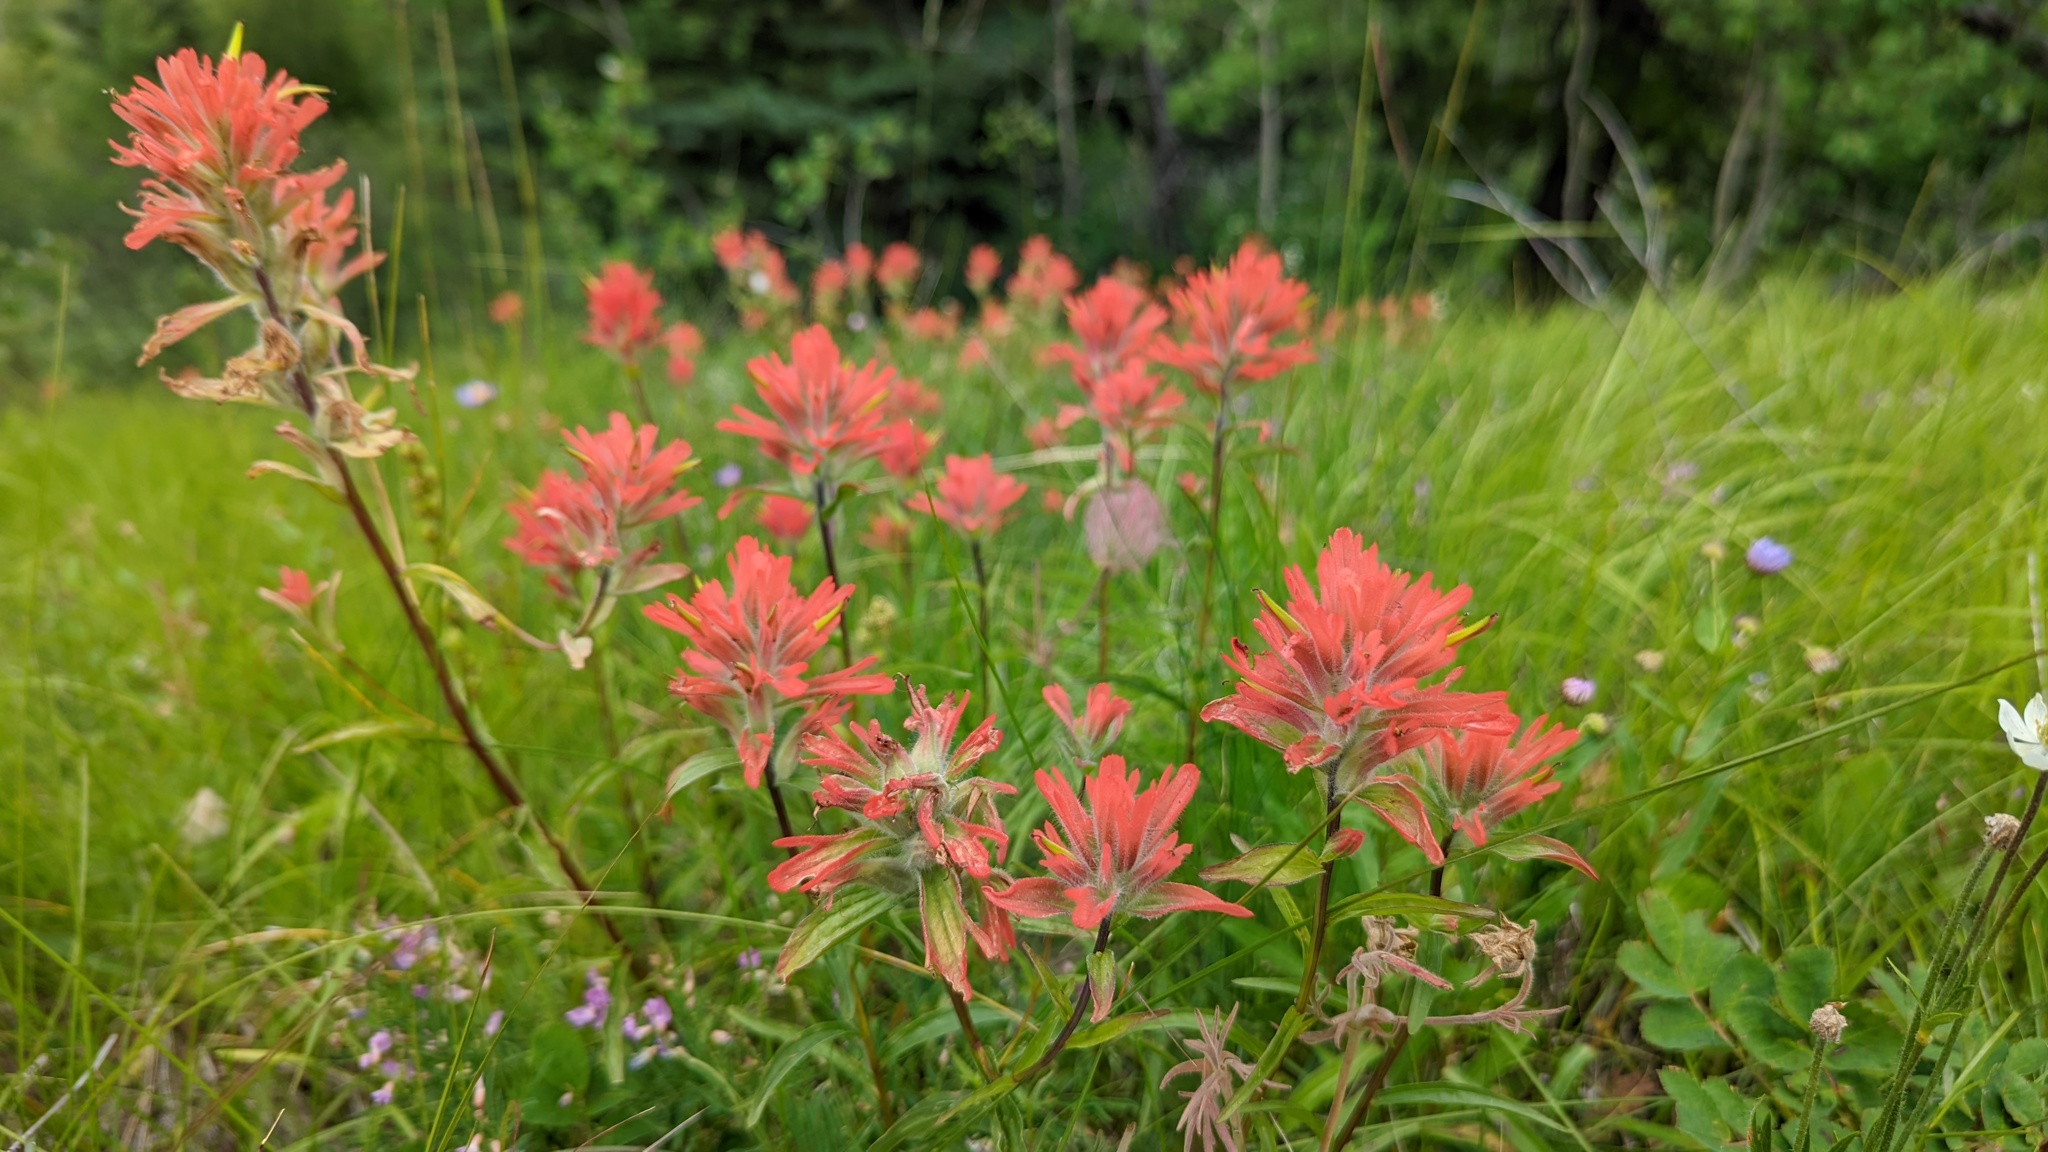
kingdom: Plantae
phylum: Tracheophyta
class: Magnoliopsida
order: Lamiales
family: Orobanchaceae
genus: Castilleja
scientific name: Castilleja miniata
